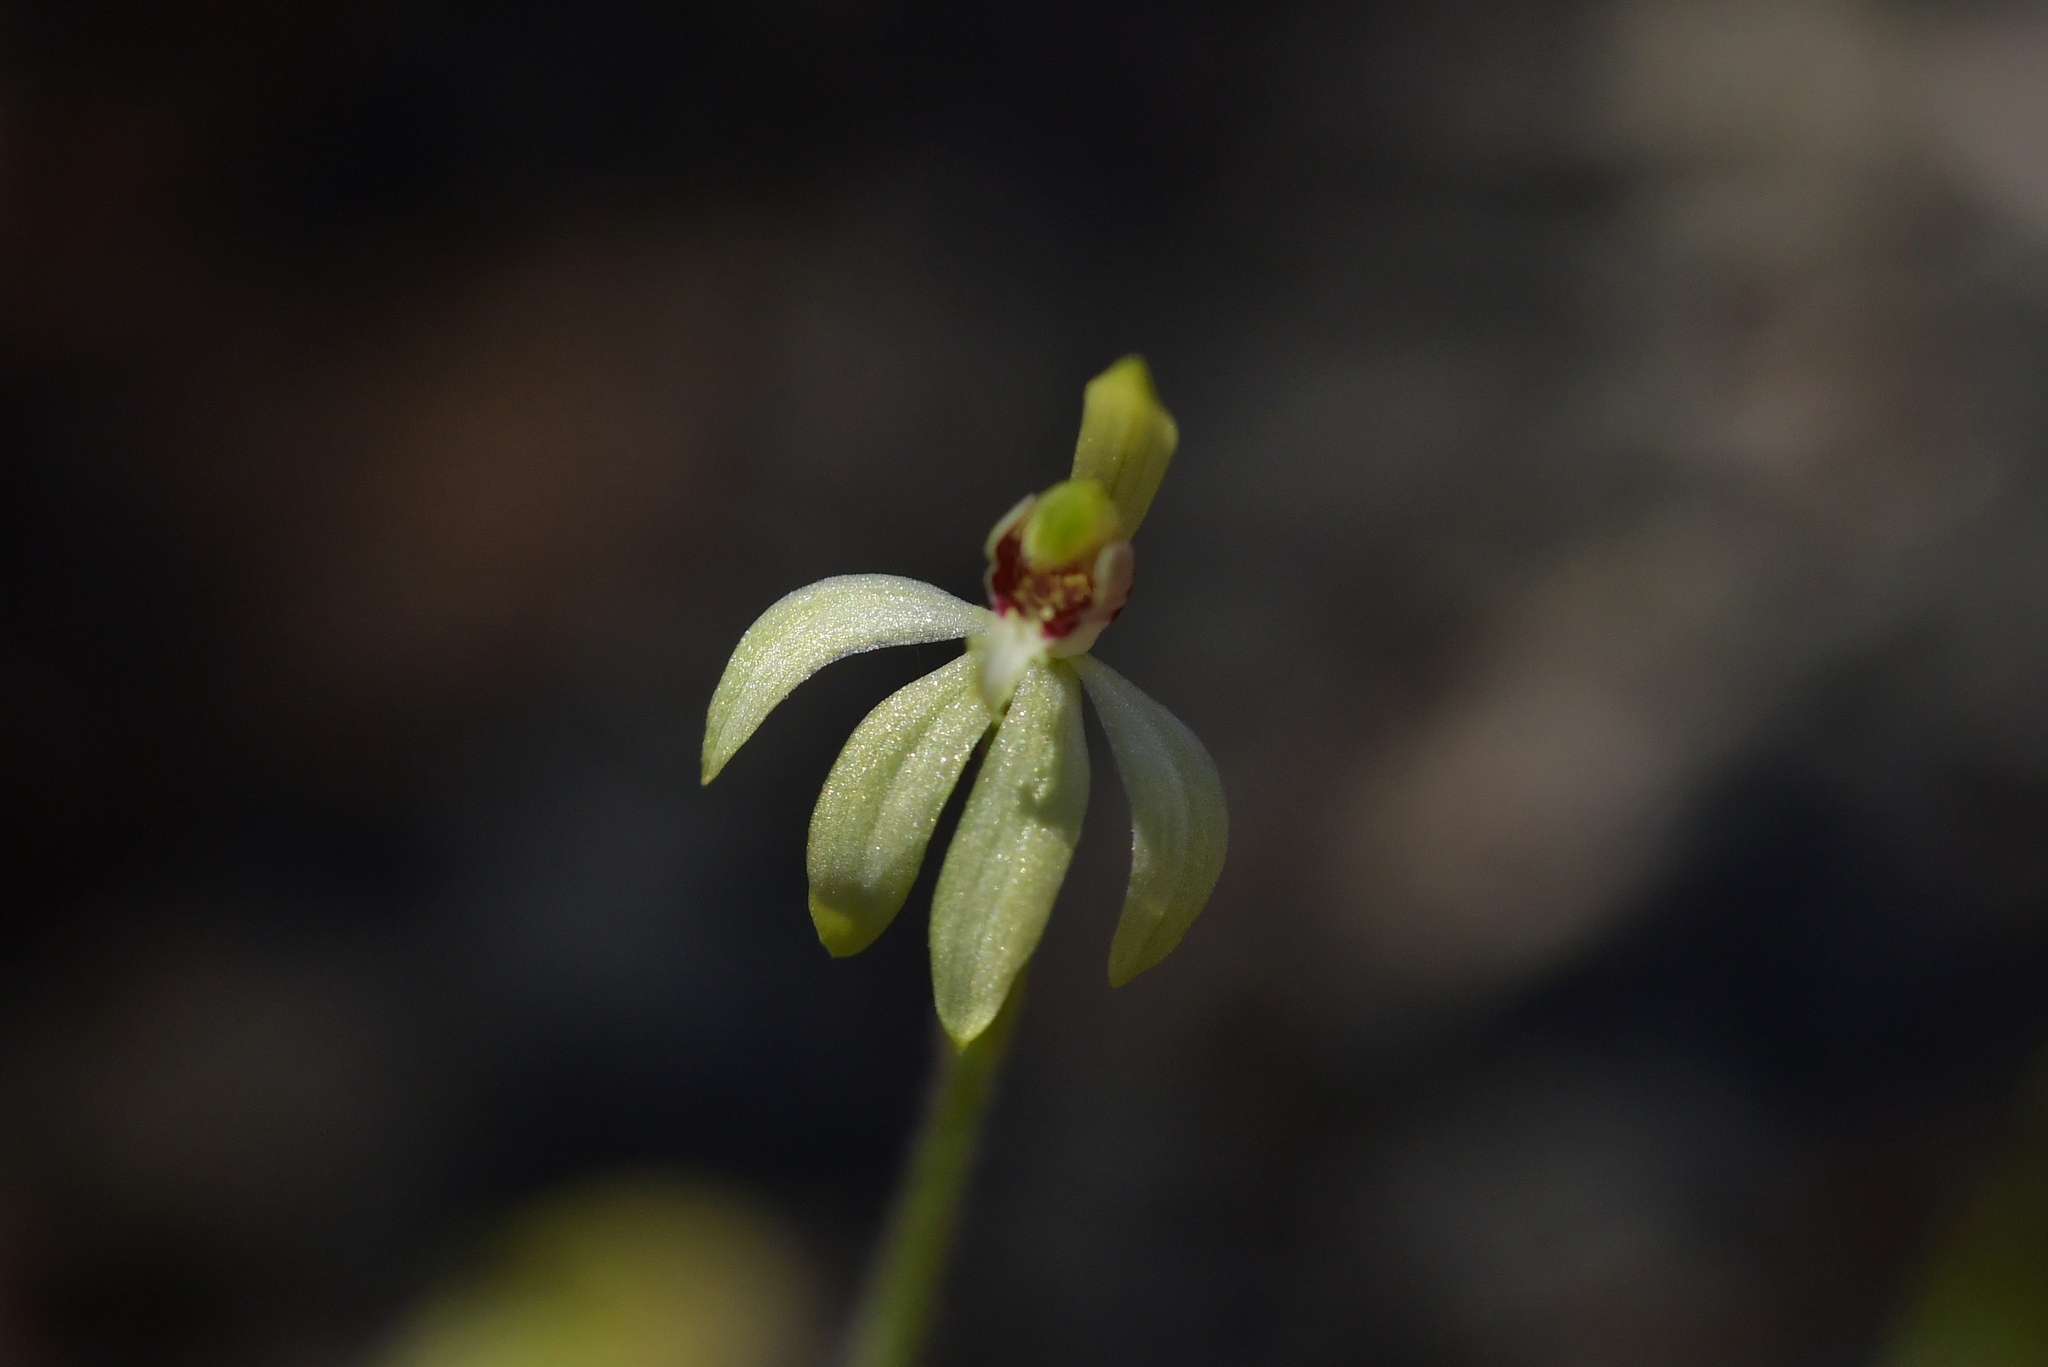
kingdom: Plantae
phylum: Tracheophyta
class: Liliopsida
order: Asparagales
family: Orchidaceae
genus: Caladenia
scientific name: Caladenia chlorostyla
